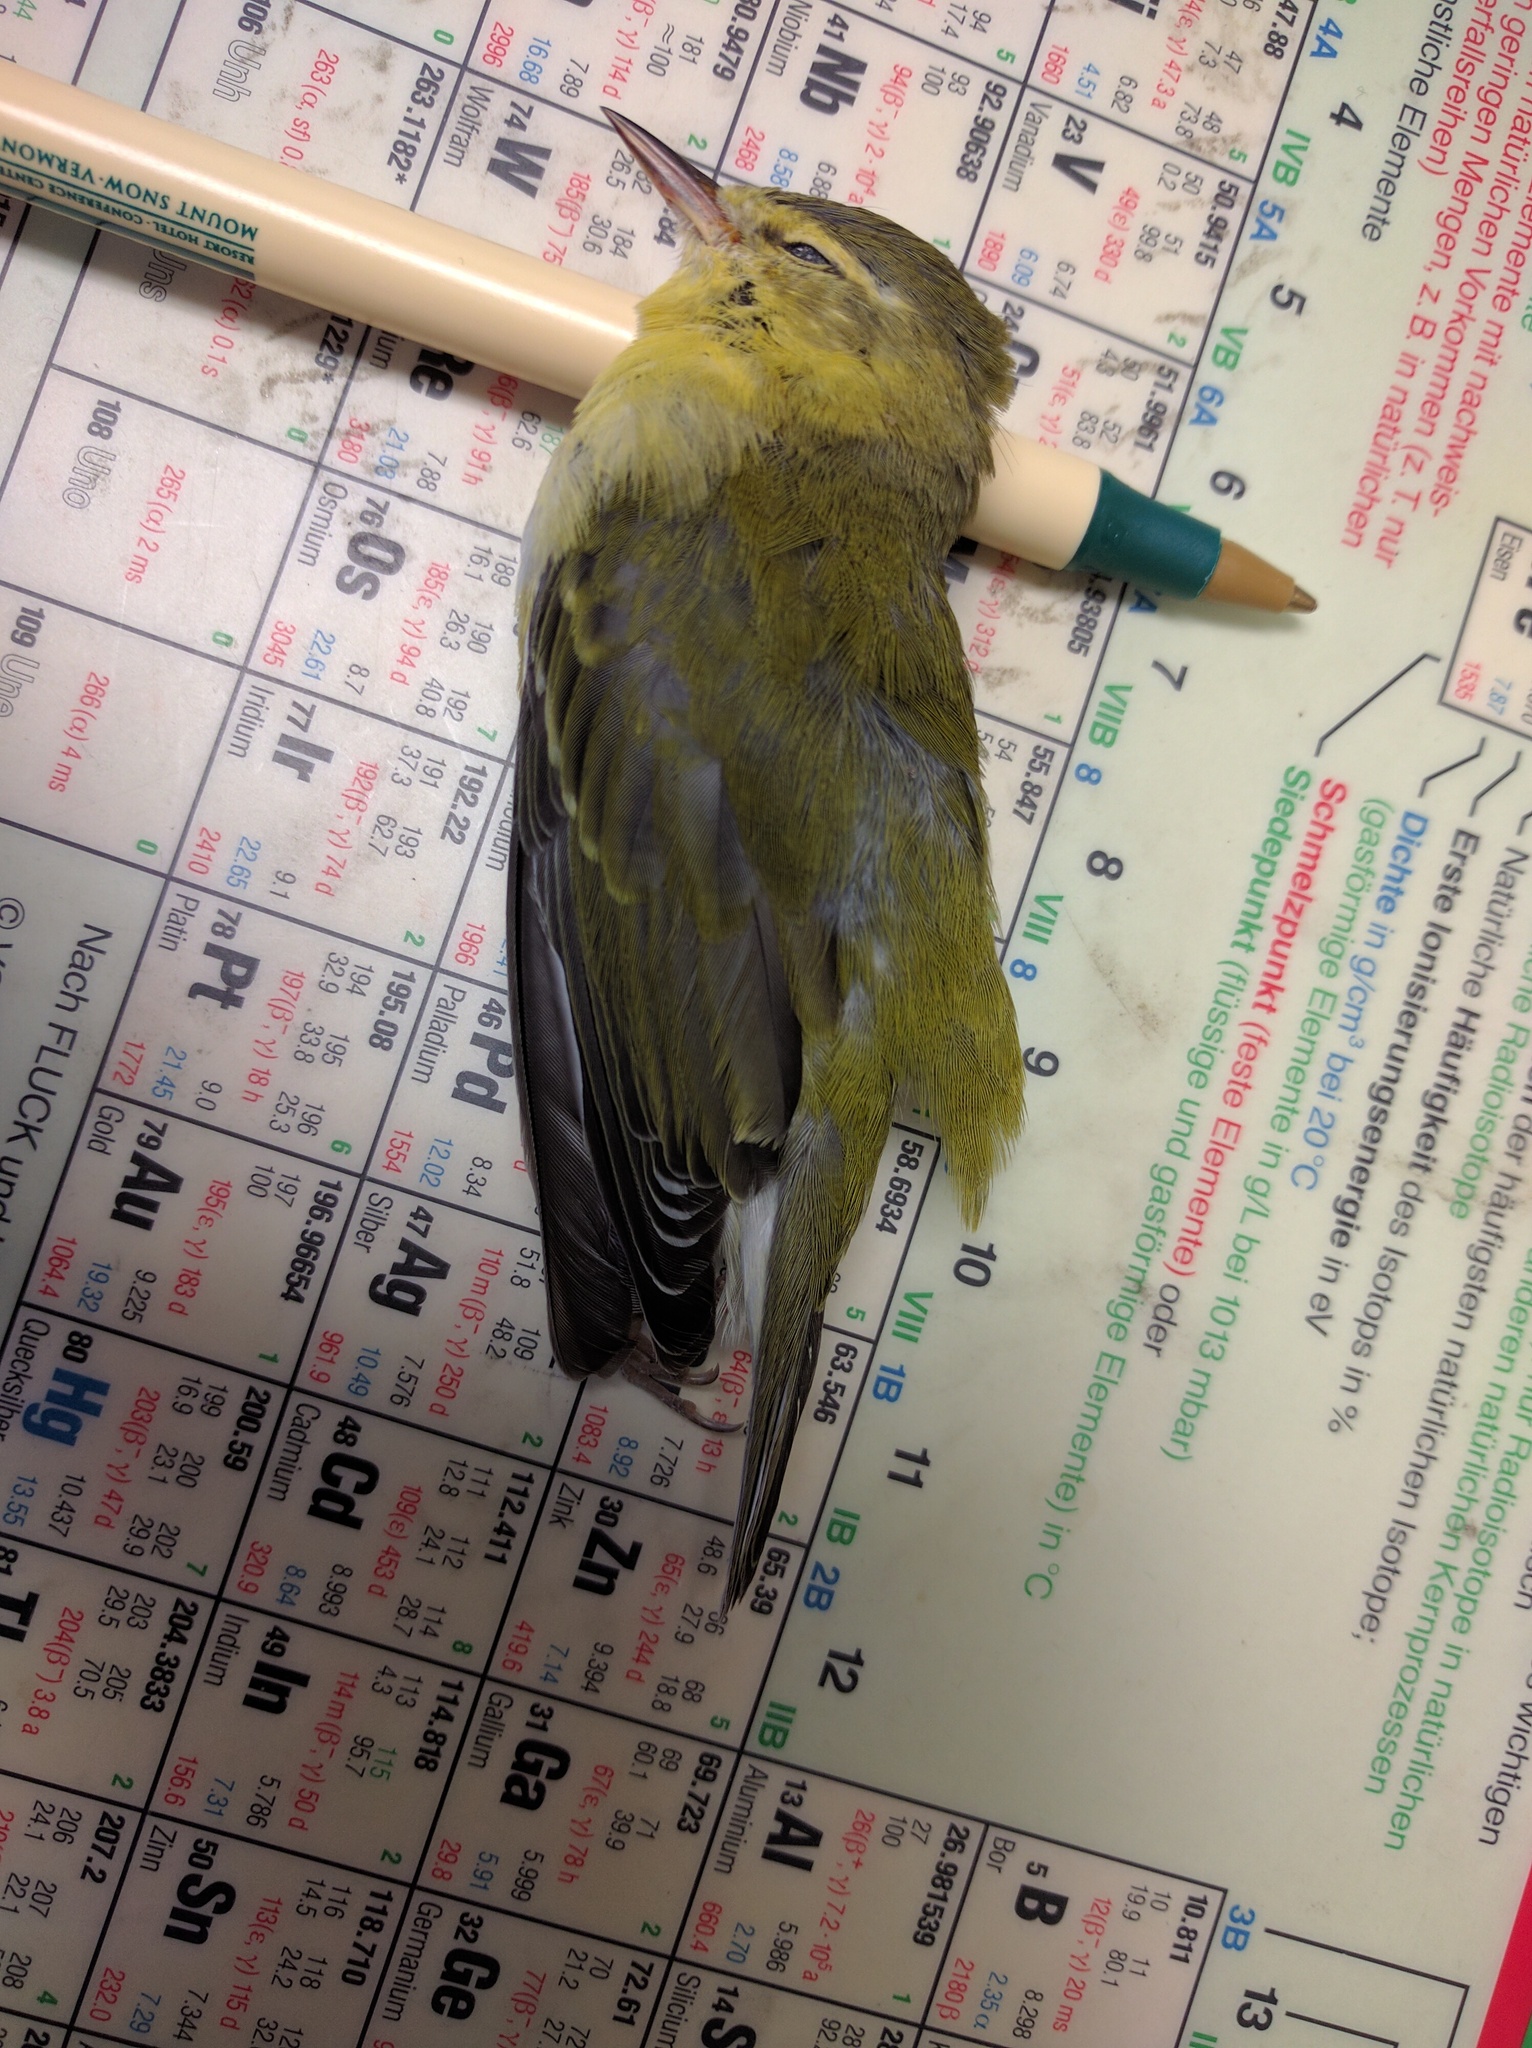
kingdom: Animalia
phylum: Chordata
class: Aves
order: Passeriformes
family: Parulidae
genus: Leiothlypis
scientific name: Leiothlypis peregrina
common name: Tennessee warbler
